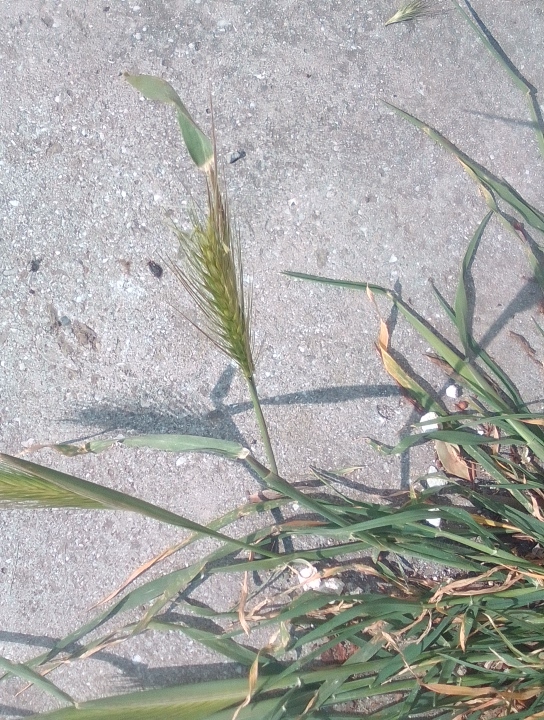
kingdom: Plantae
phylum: Tracheophyta
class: Liliopsida
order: Poales
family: Poaceae
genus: Hordeum
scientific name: Hordeum murinum
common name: Wall barley
